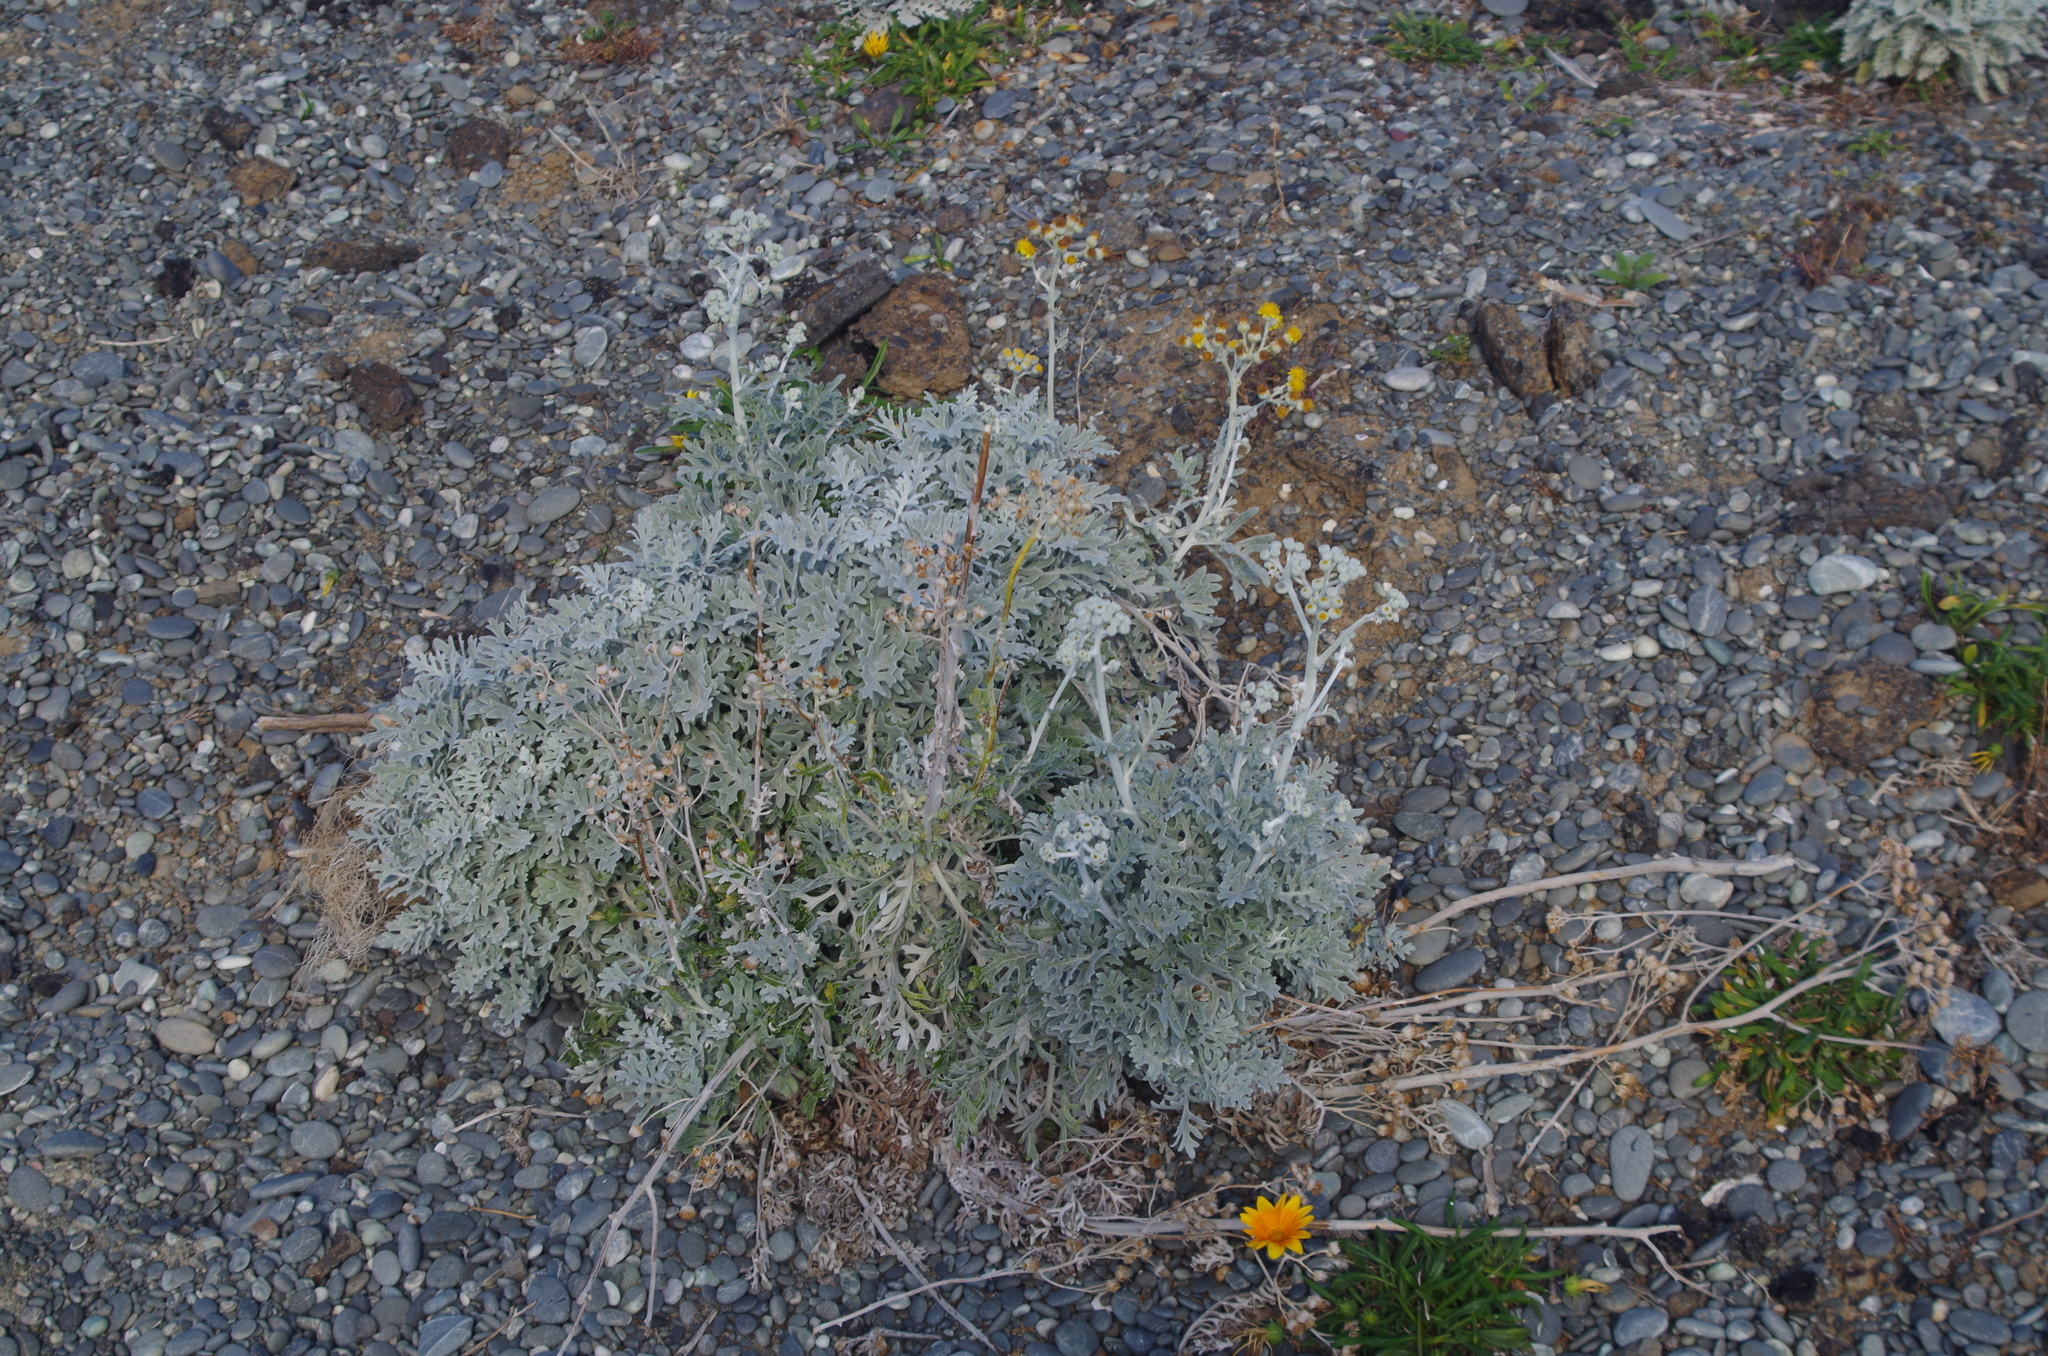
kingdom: Plantae
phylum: Tracheophyta
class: Magnoliopsida
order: Asterales
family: Asteraceae
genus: Jacobaea
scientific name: Jacobaea maritima
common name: Silver ragwort
